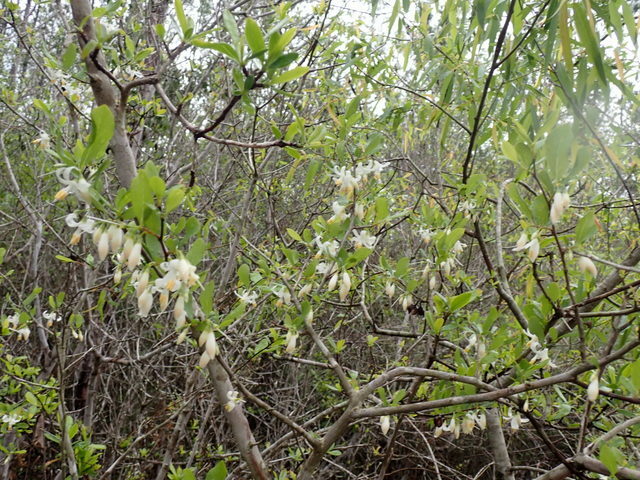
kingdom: Plantae
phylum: Tracheophyta
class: Magnoliopsida
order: Ericales
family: Styracaceae
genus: Styrax
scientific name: Styrax americanus
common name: American snowbell
